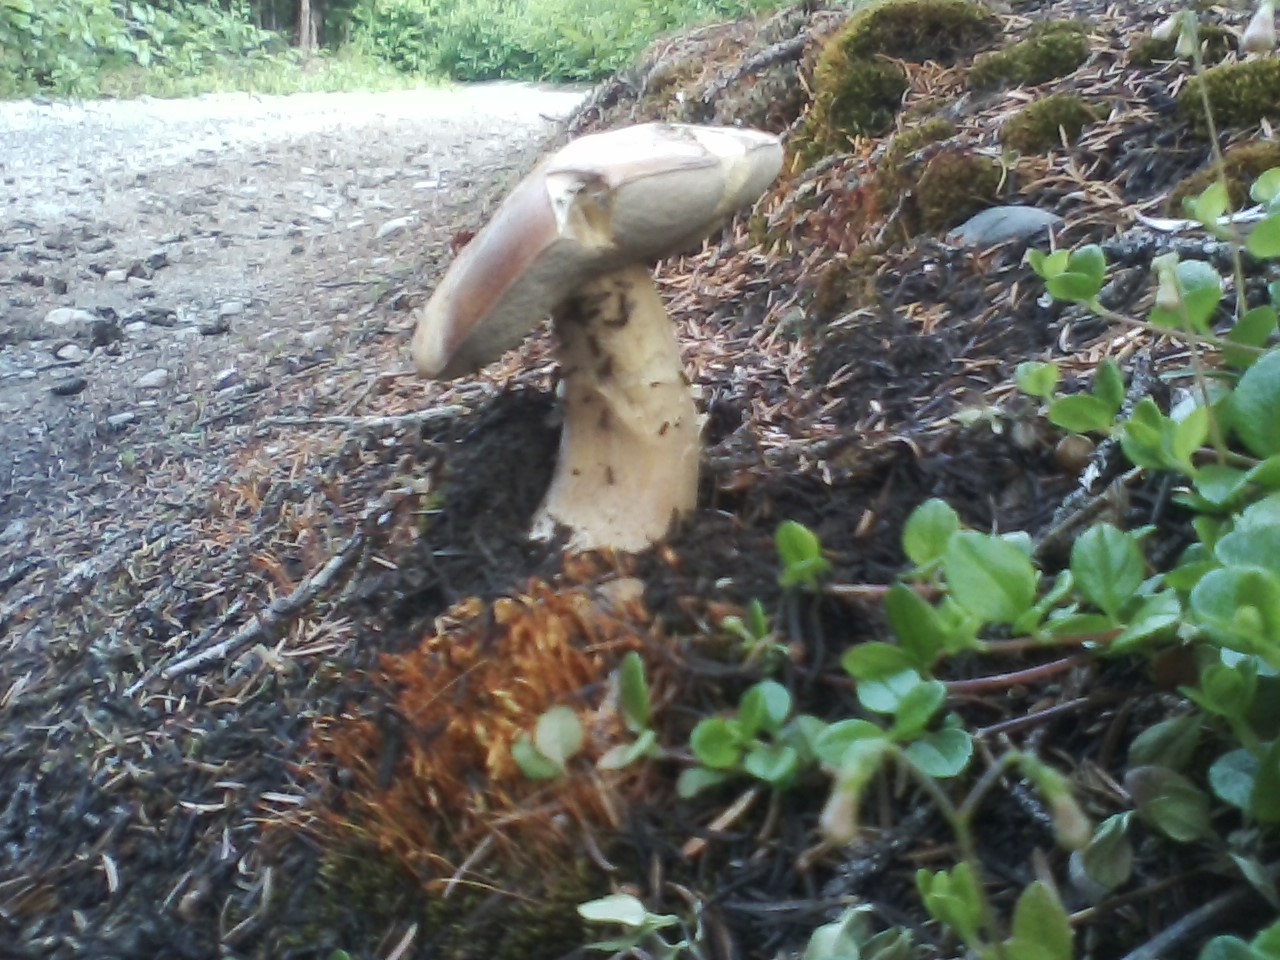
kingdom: Fungi
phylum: Basidiomycota
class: Agaricomycetes
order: Boletales
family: Boletaceae
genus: Boletus
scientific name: Boletus edulis
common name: Cep
